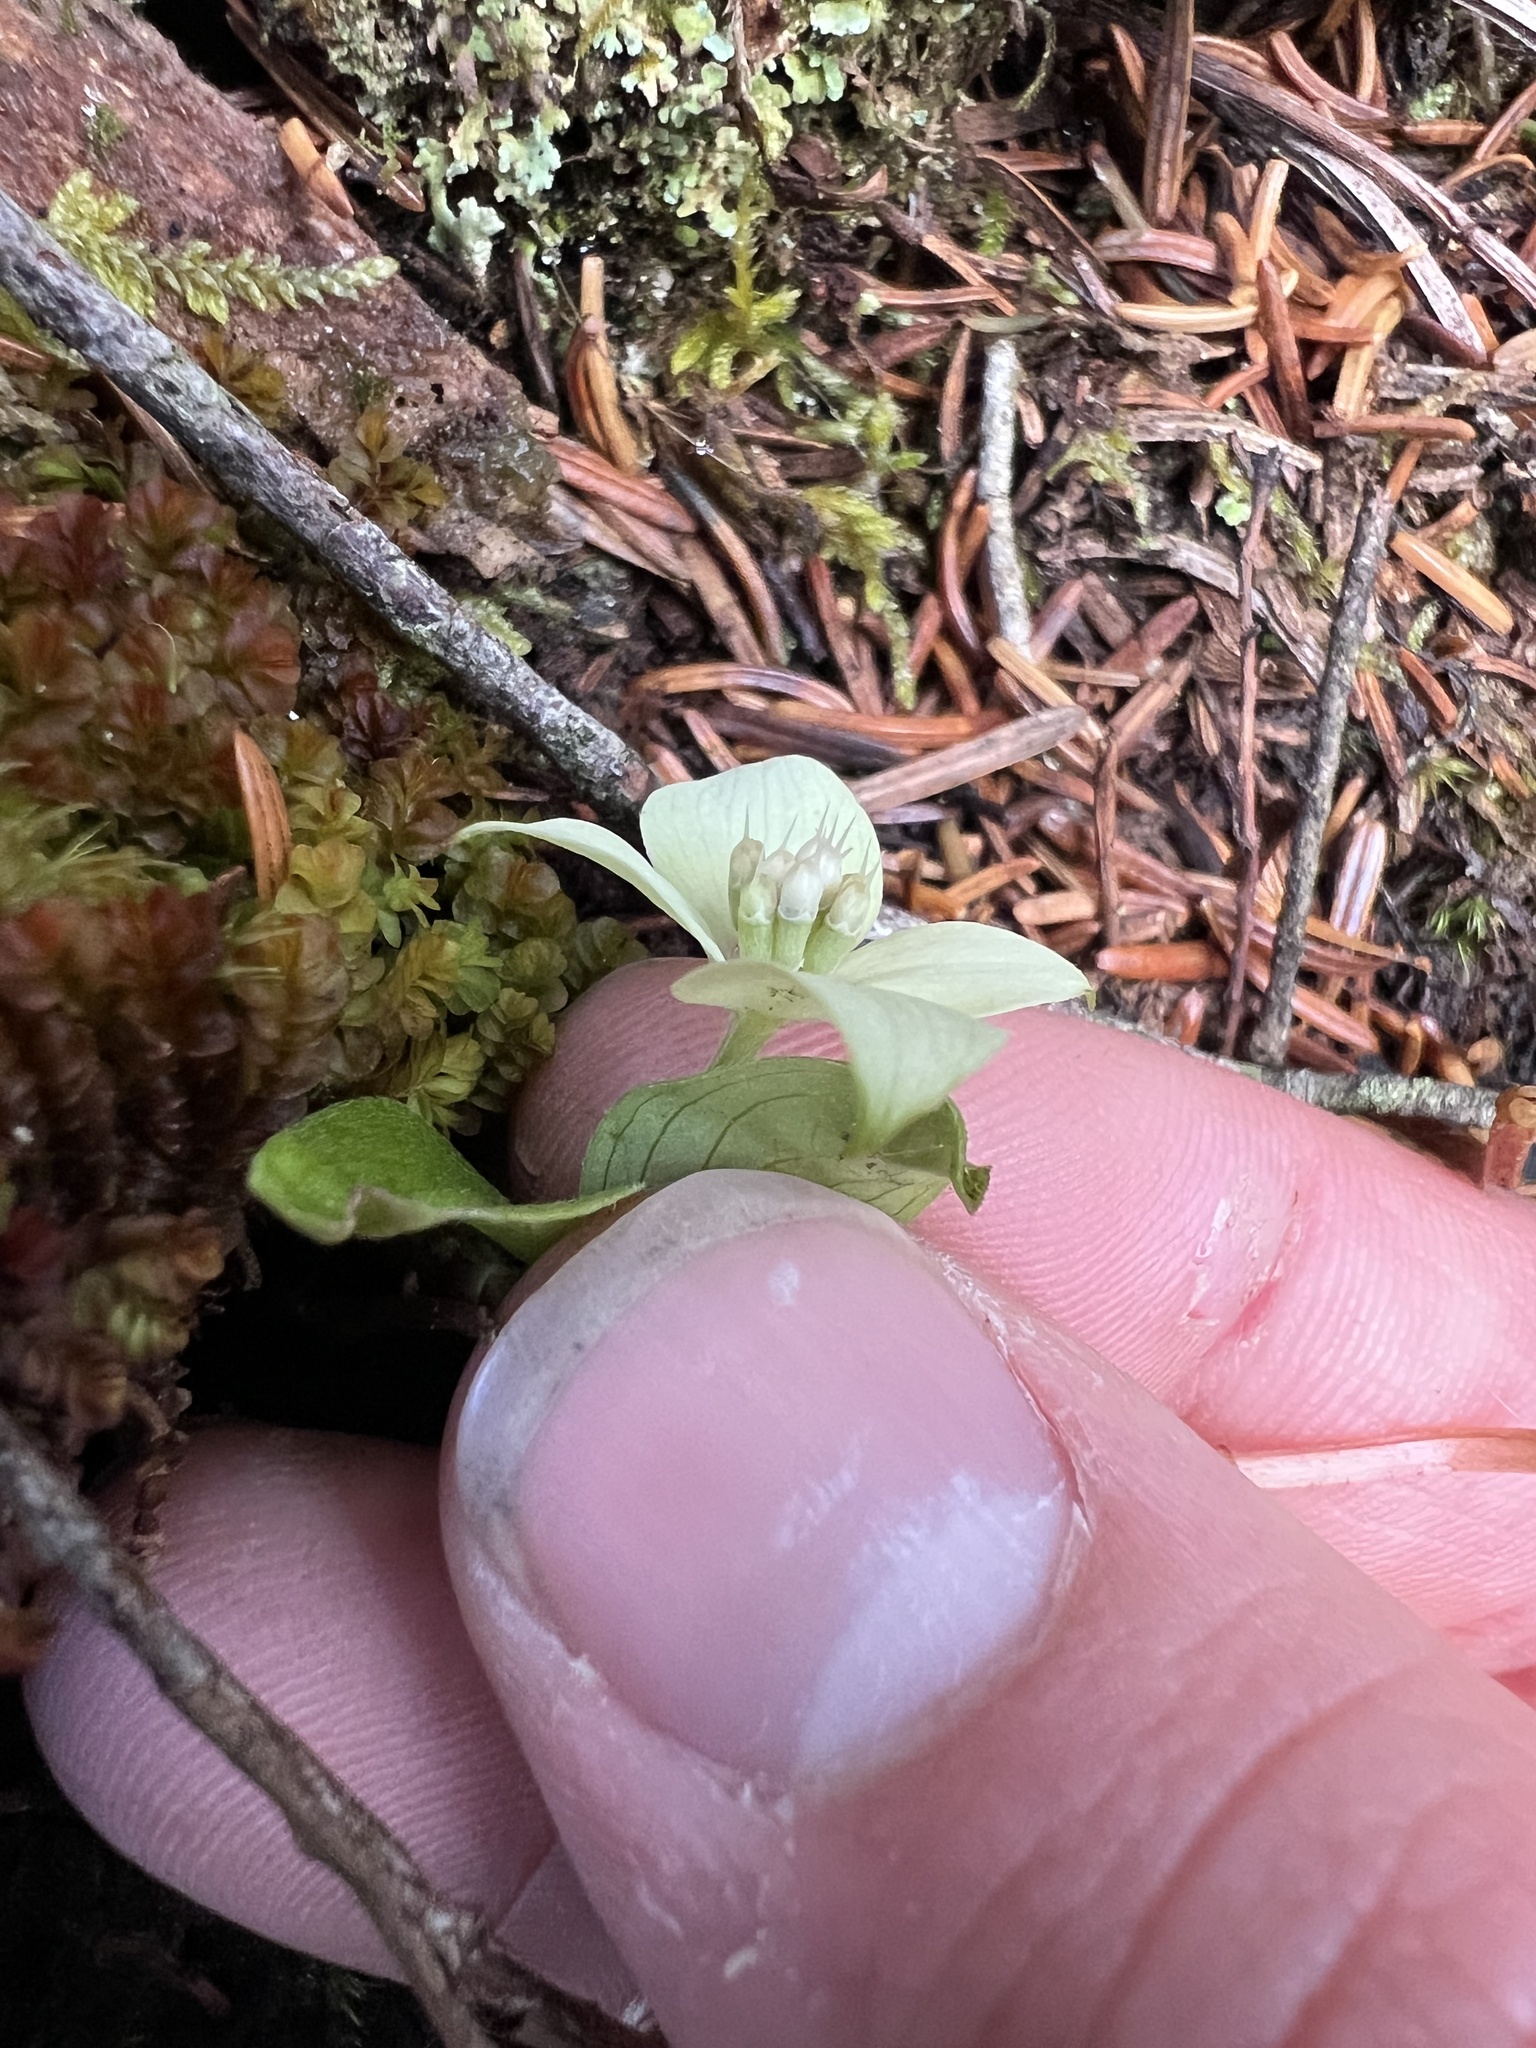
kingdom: Plantae
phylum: Tracheophyta
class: Magnoliopsida
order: Cornales
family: Cornaceae
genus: Cornus
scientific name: Cornus canadensis
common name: Creeping dogwood
